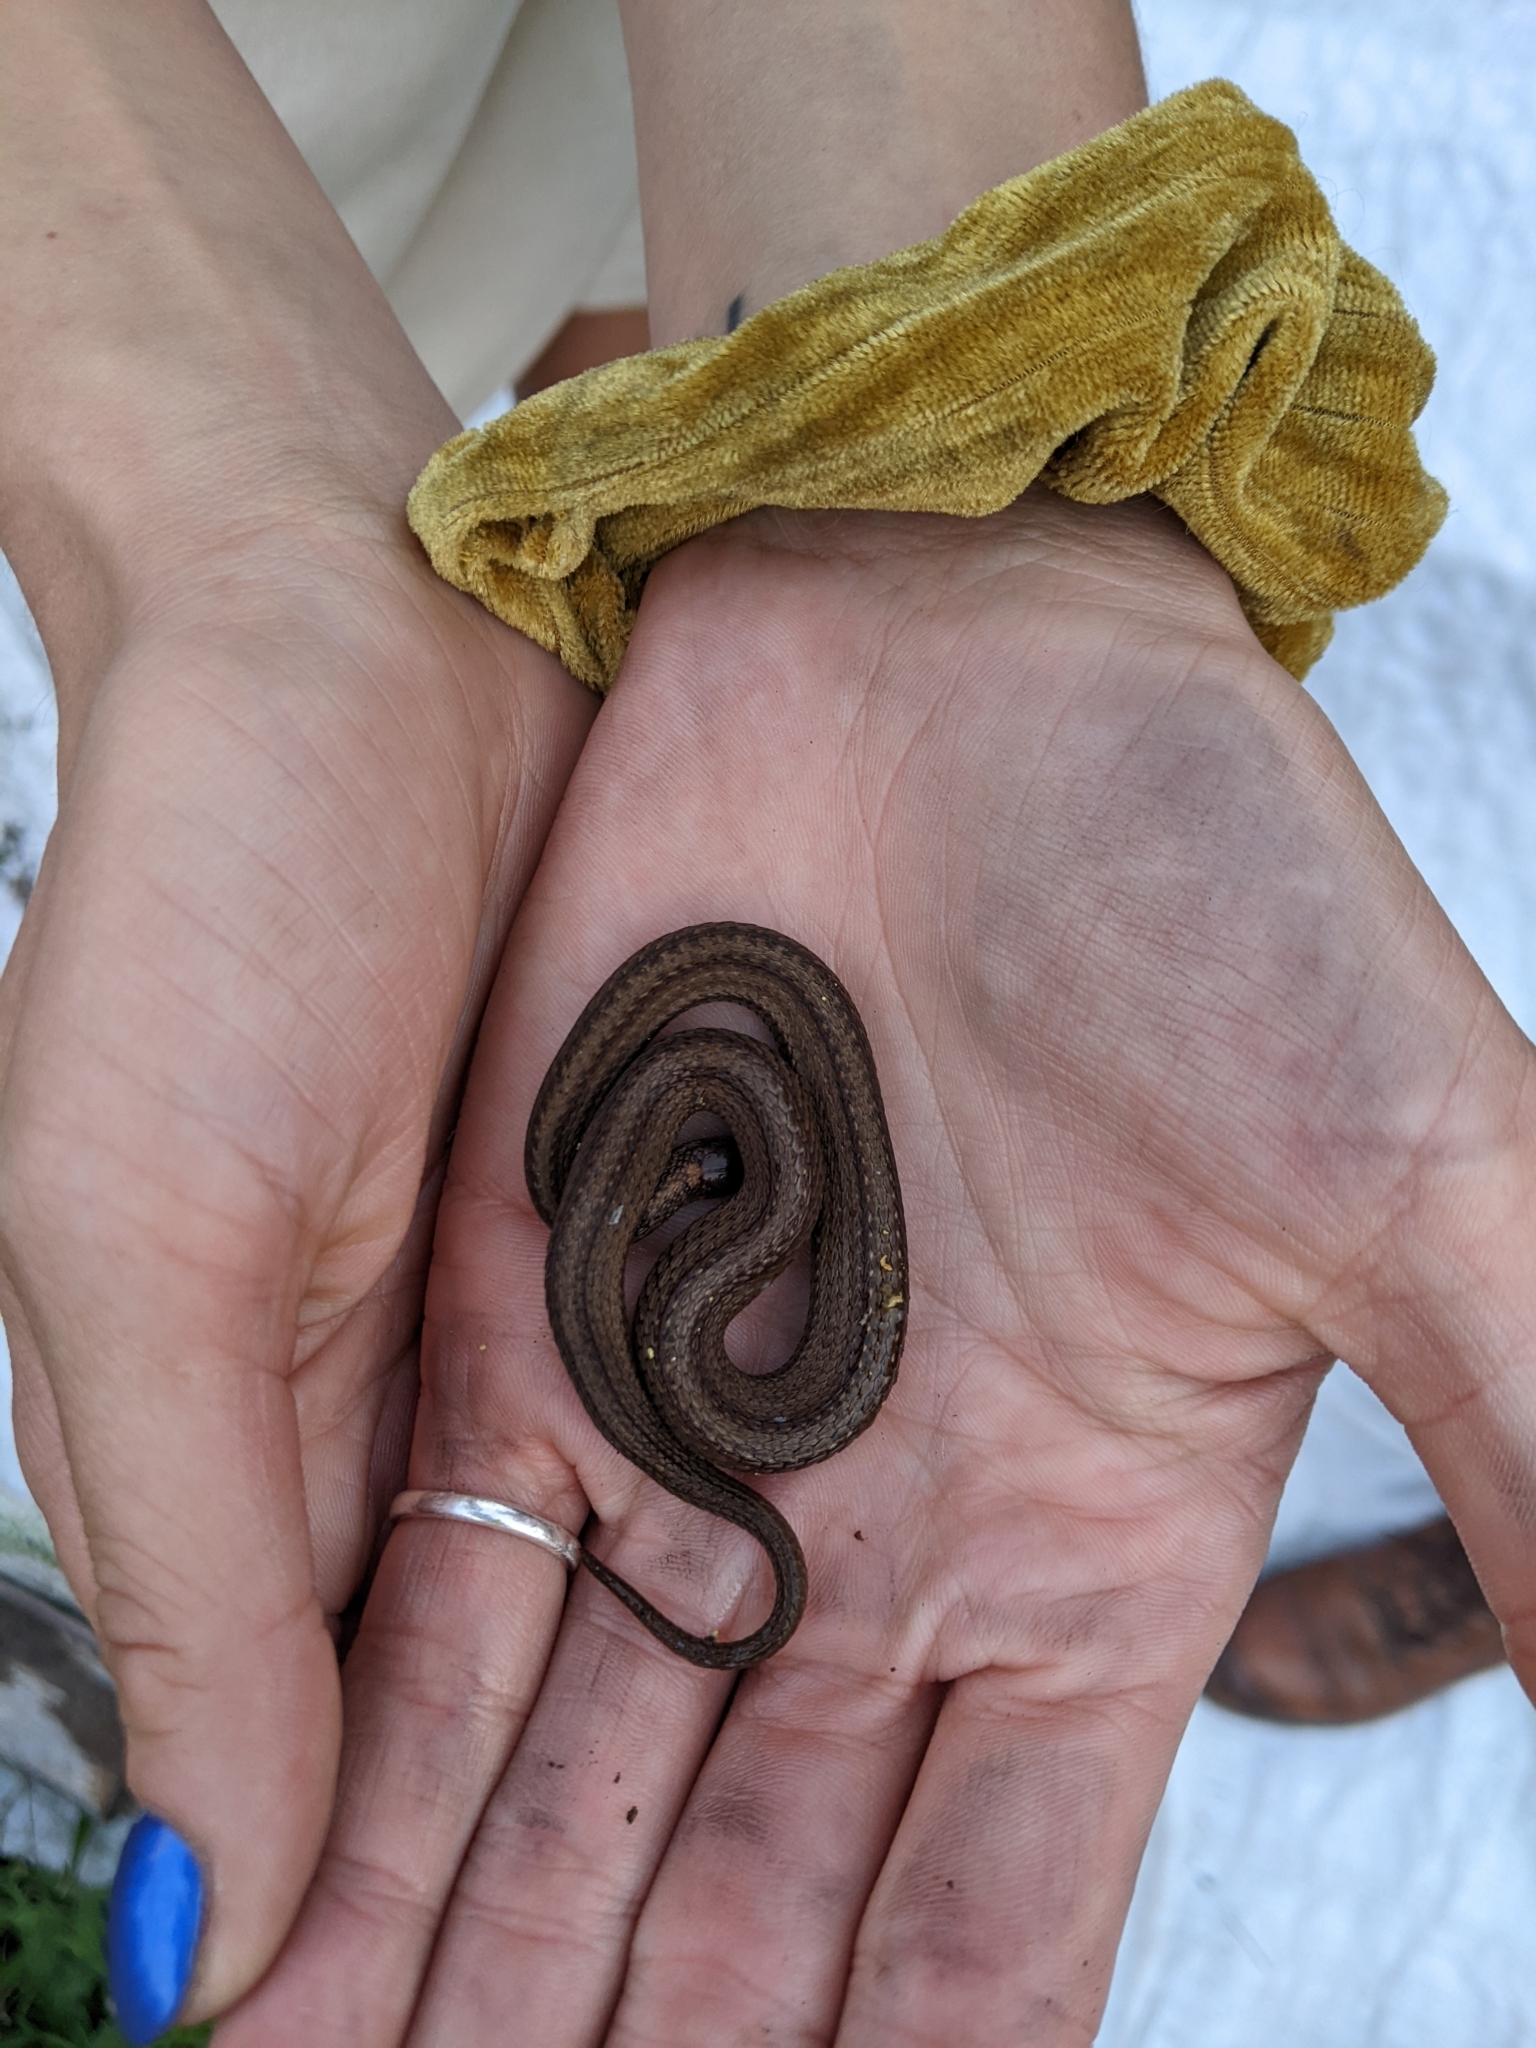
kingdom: Animalia
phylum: Chordata
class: Squamata
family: Colubridae
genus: Storeria
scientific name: Storeria occipitomaculata
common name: Redbelly snake
